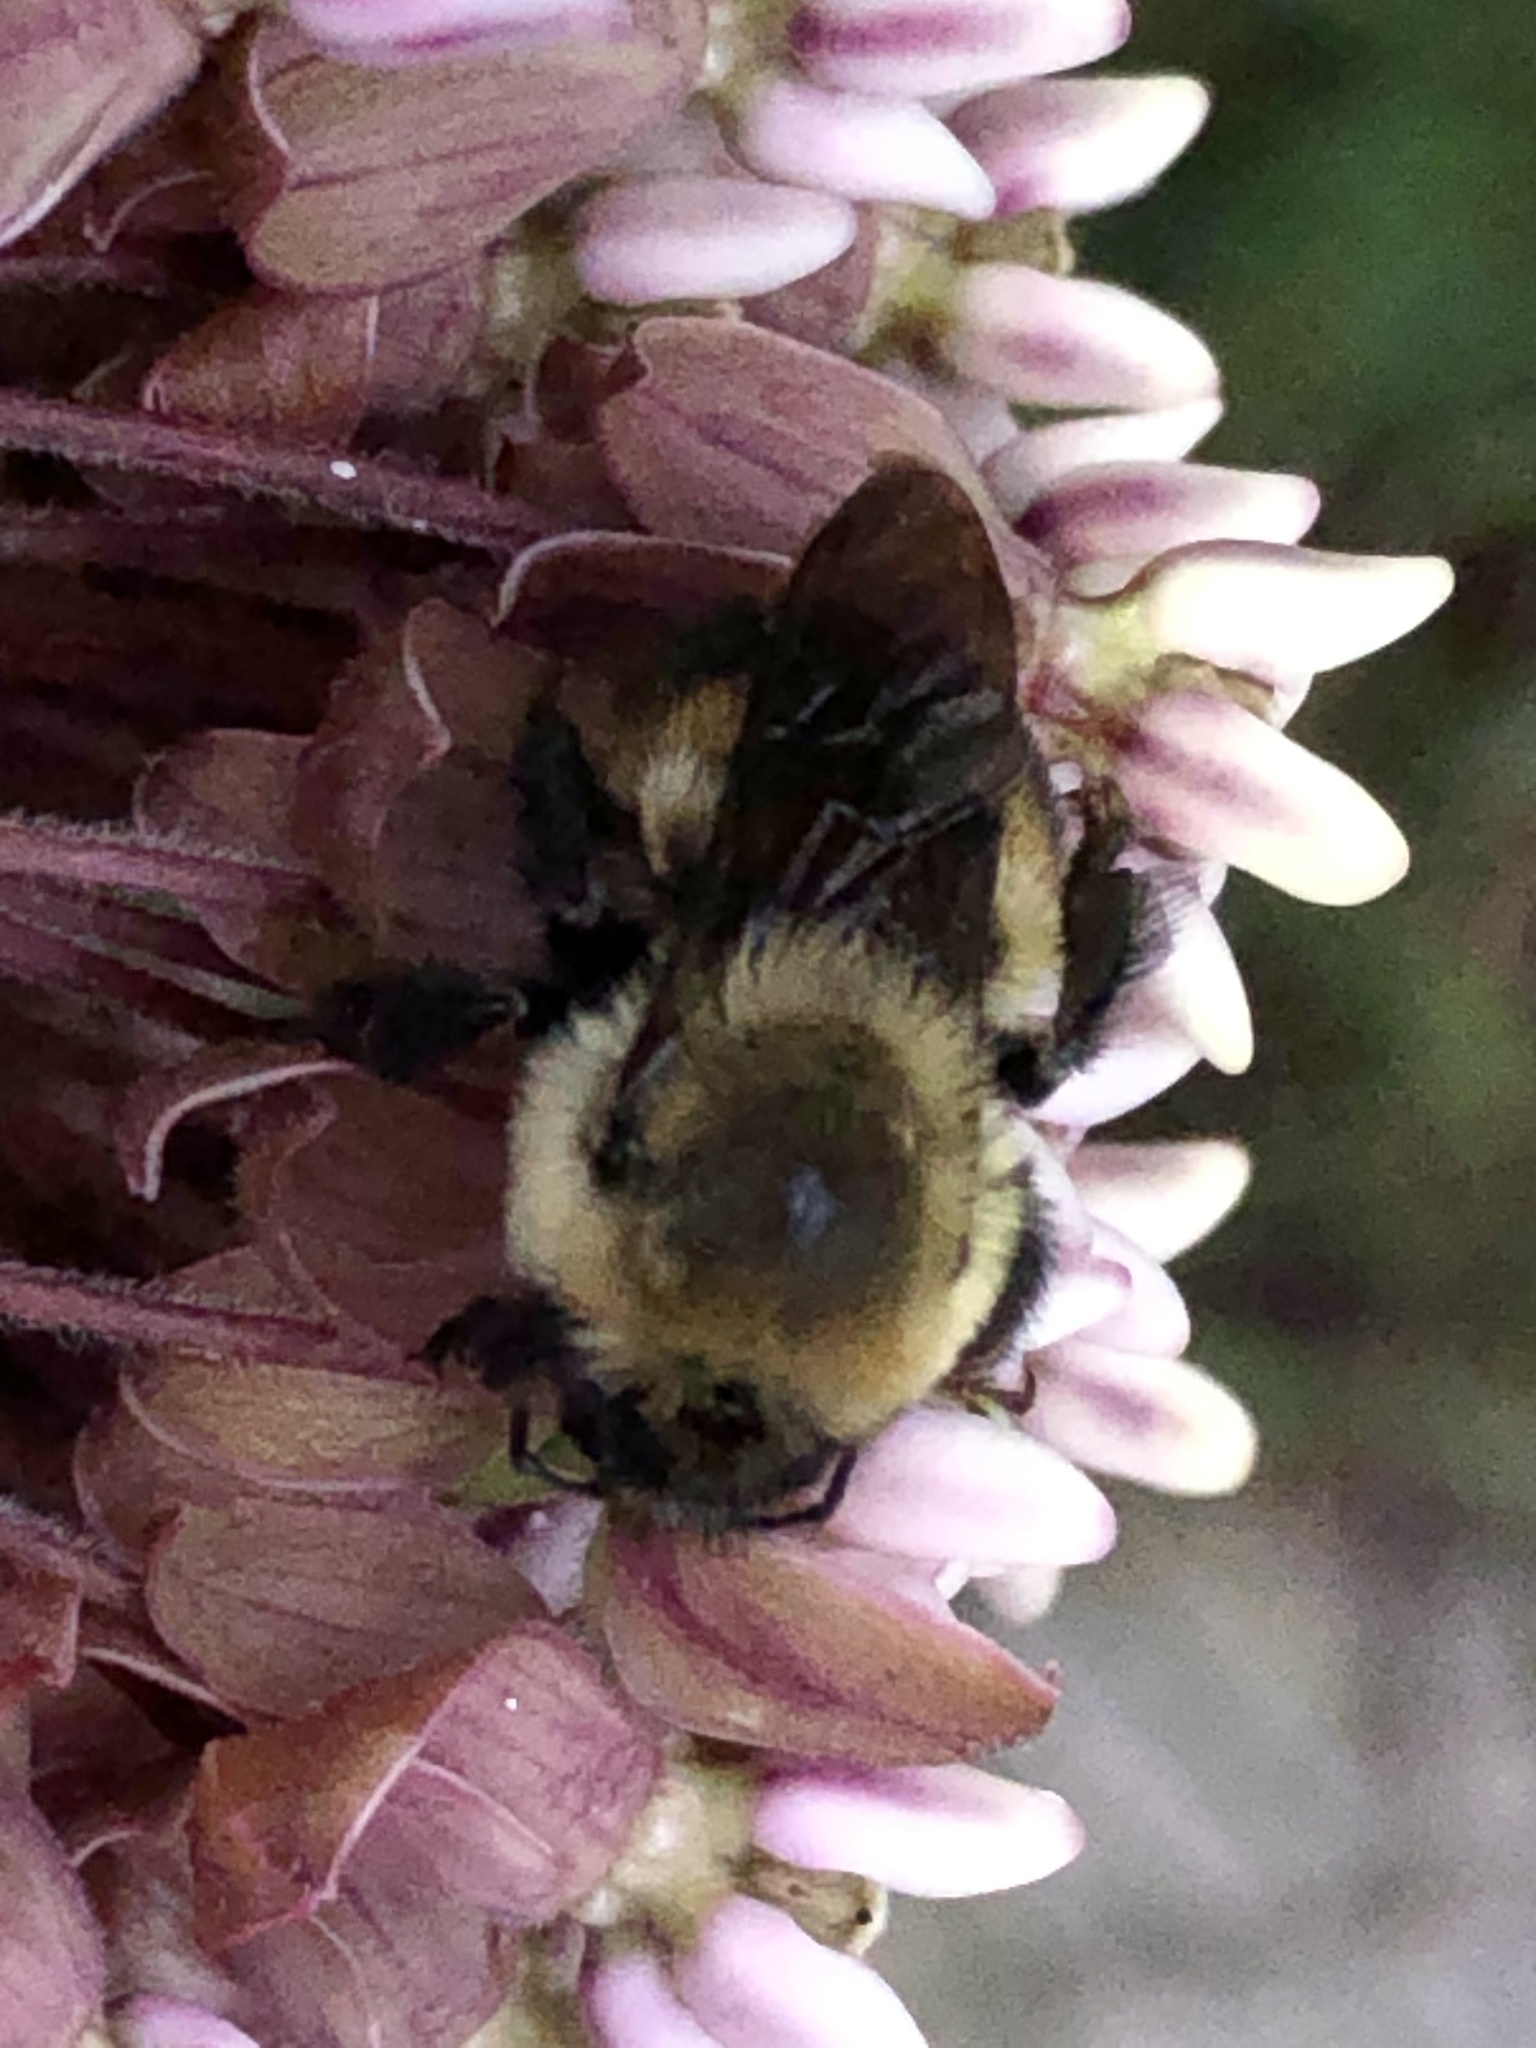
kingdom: Animalia
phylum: Arthropoda
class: Insecta
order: Hymenoptera
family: Apidae
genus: Bombus
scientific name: Bombus griseocollis
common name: Brown-belted bumble bee
